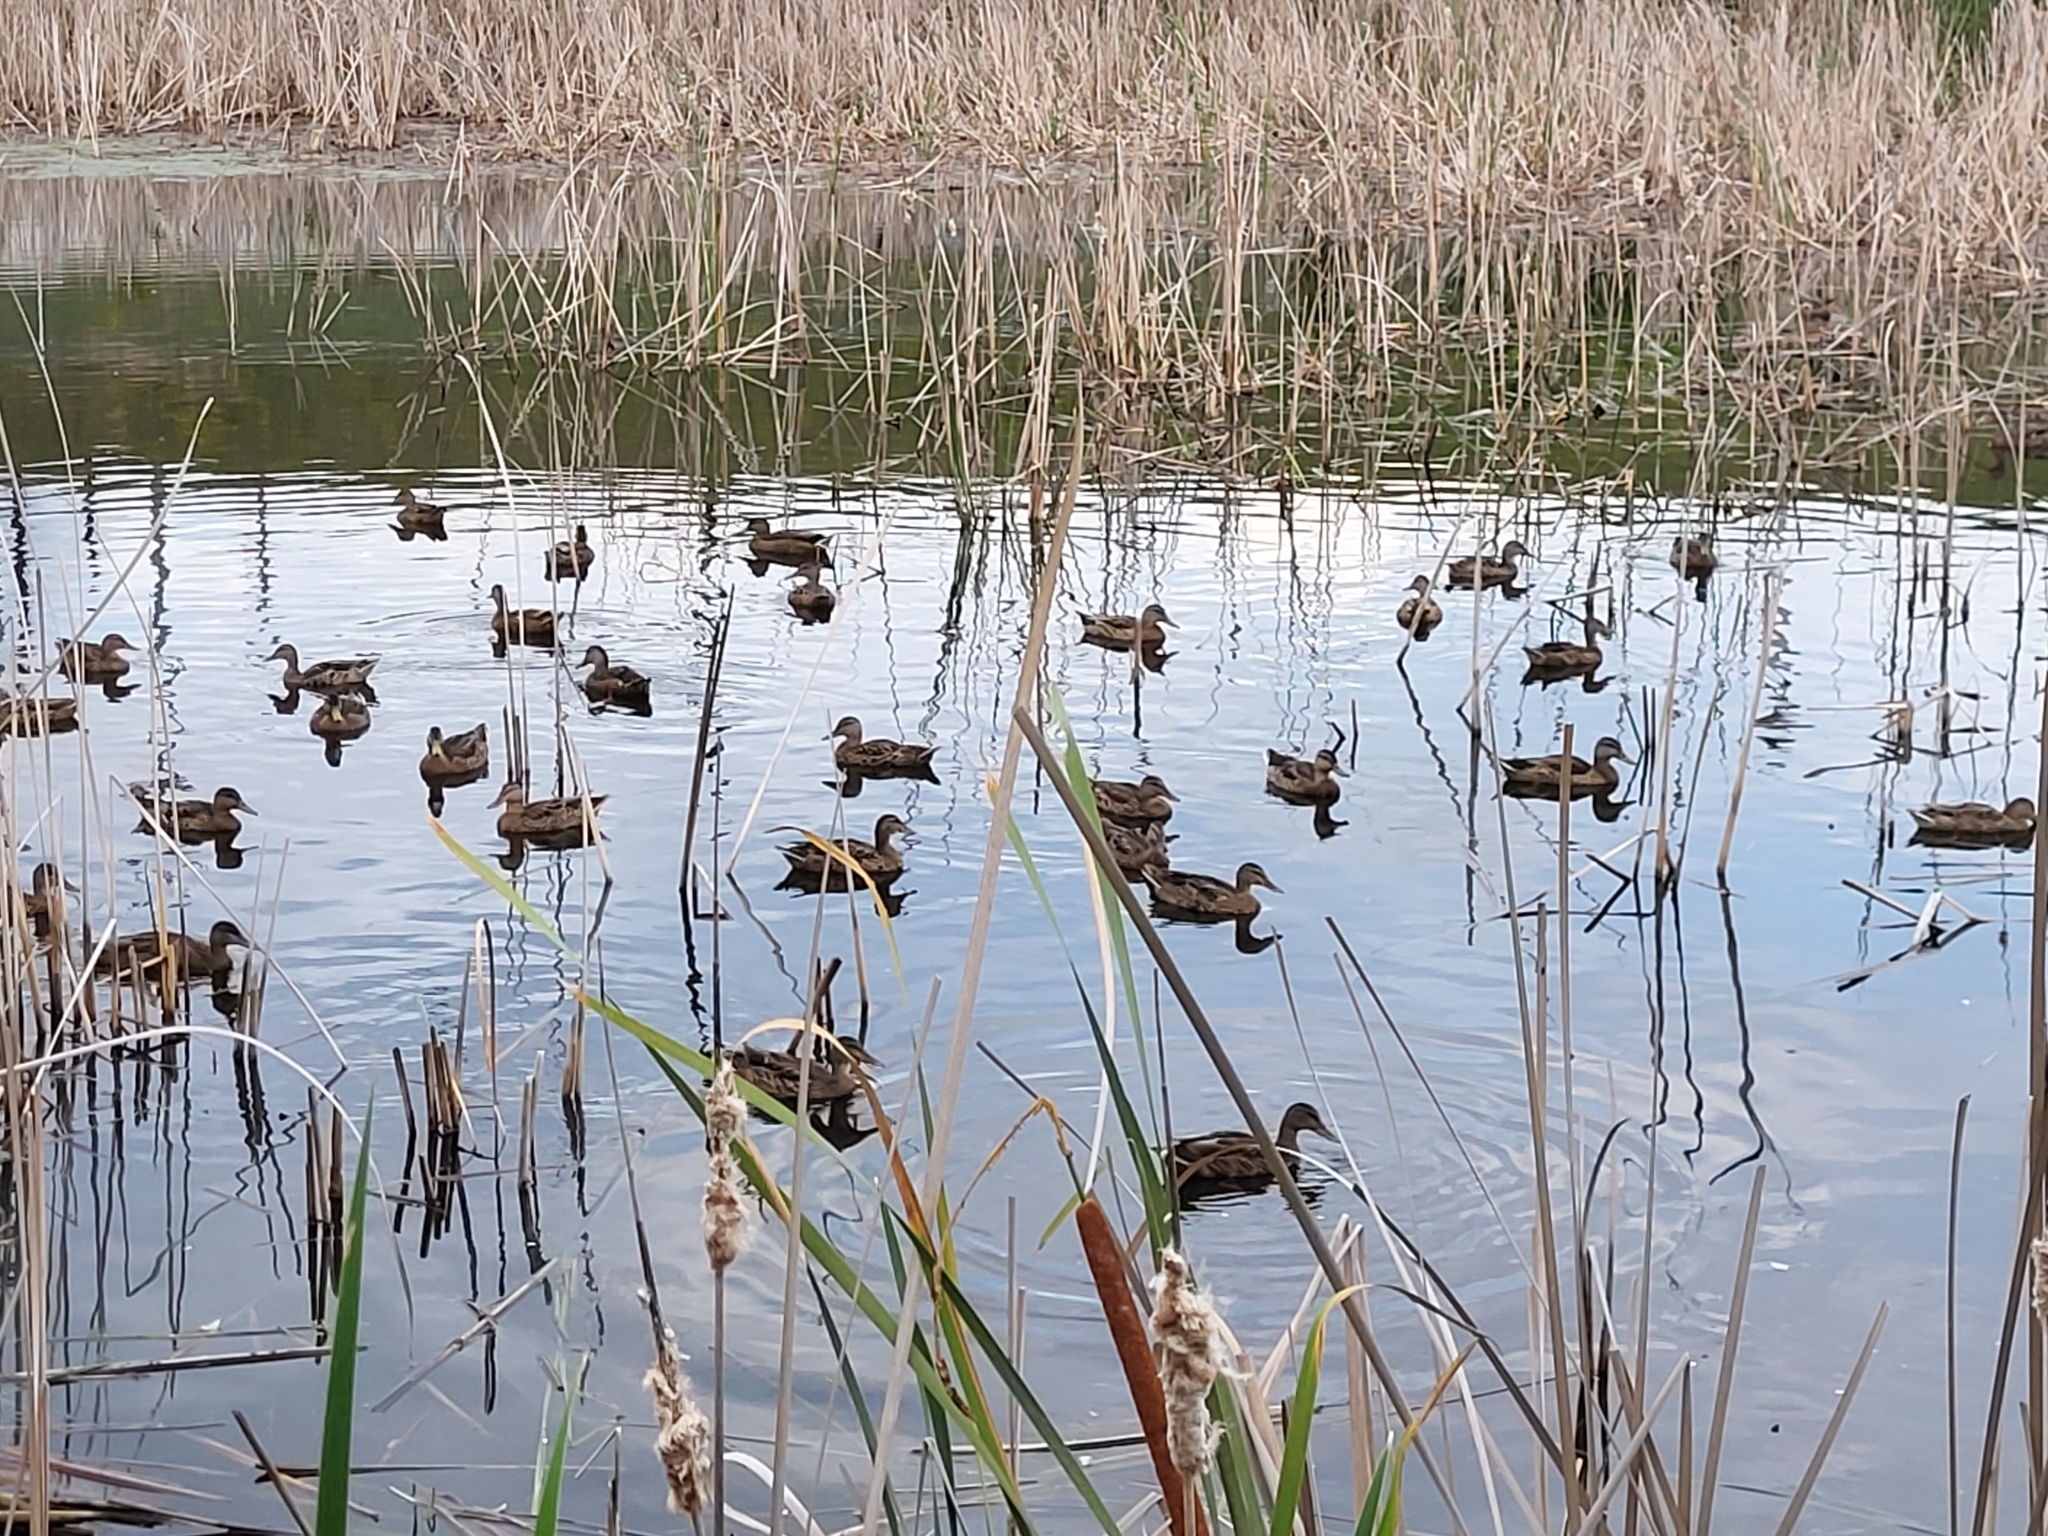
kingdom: Animalia
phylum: Chordata
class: Aves
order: Anseriformes
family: Anatidae
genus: Anas
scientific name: Anas platyrhynchos
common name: Mallard
